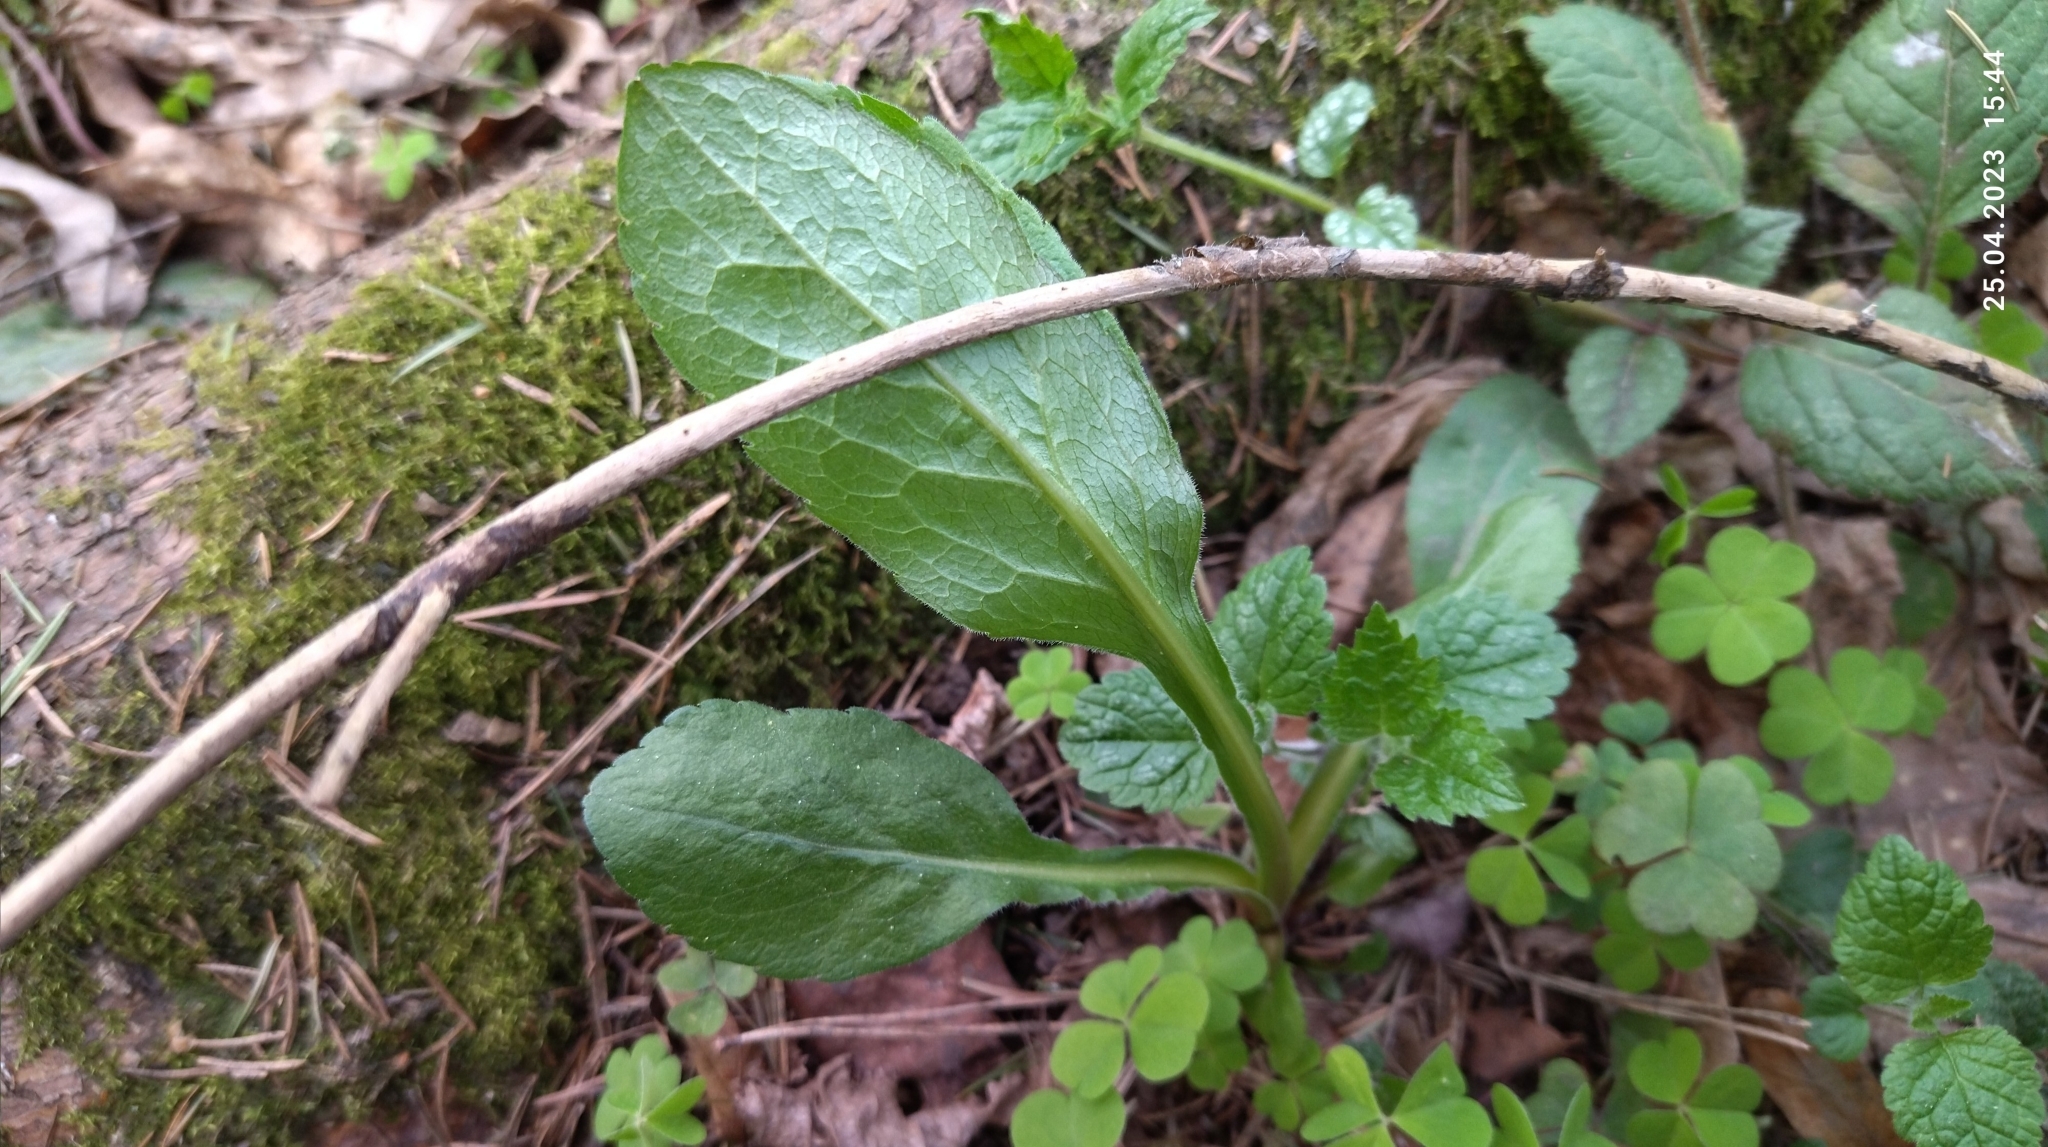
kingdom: Plantae
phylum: Tracheophyta
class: Magnoliopsida
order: Asterales
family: Asteraceae
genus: Solidago
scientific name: Solidago virgaurea
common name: Goldenrod
